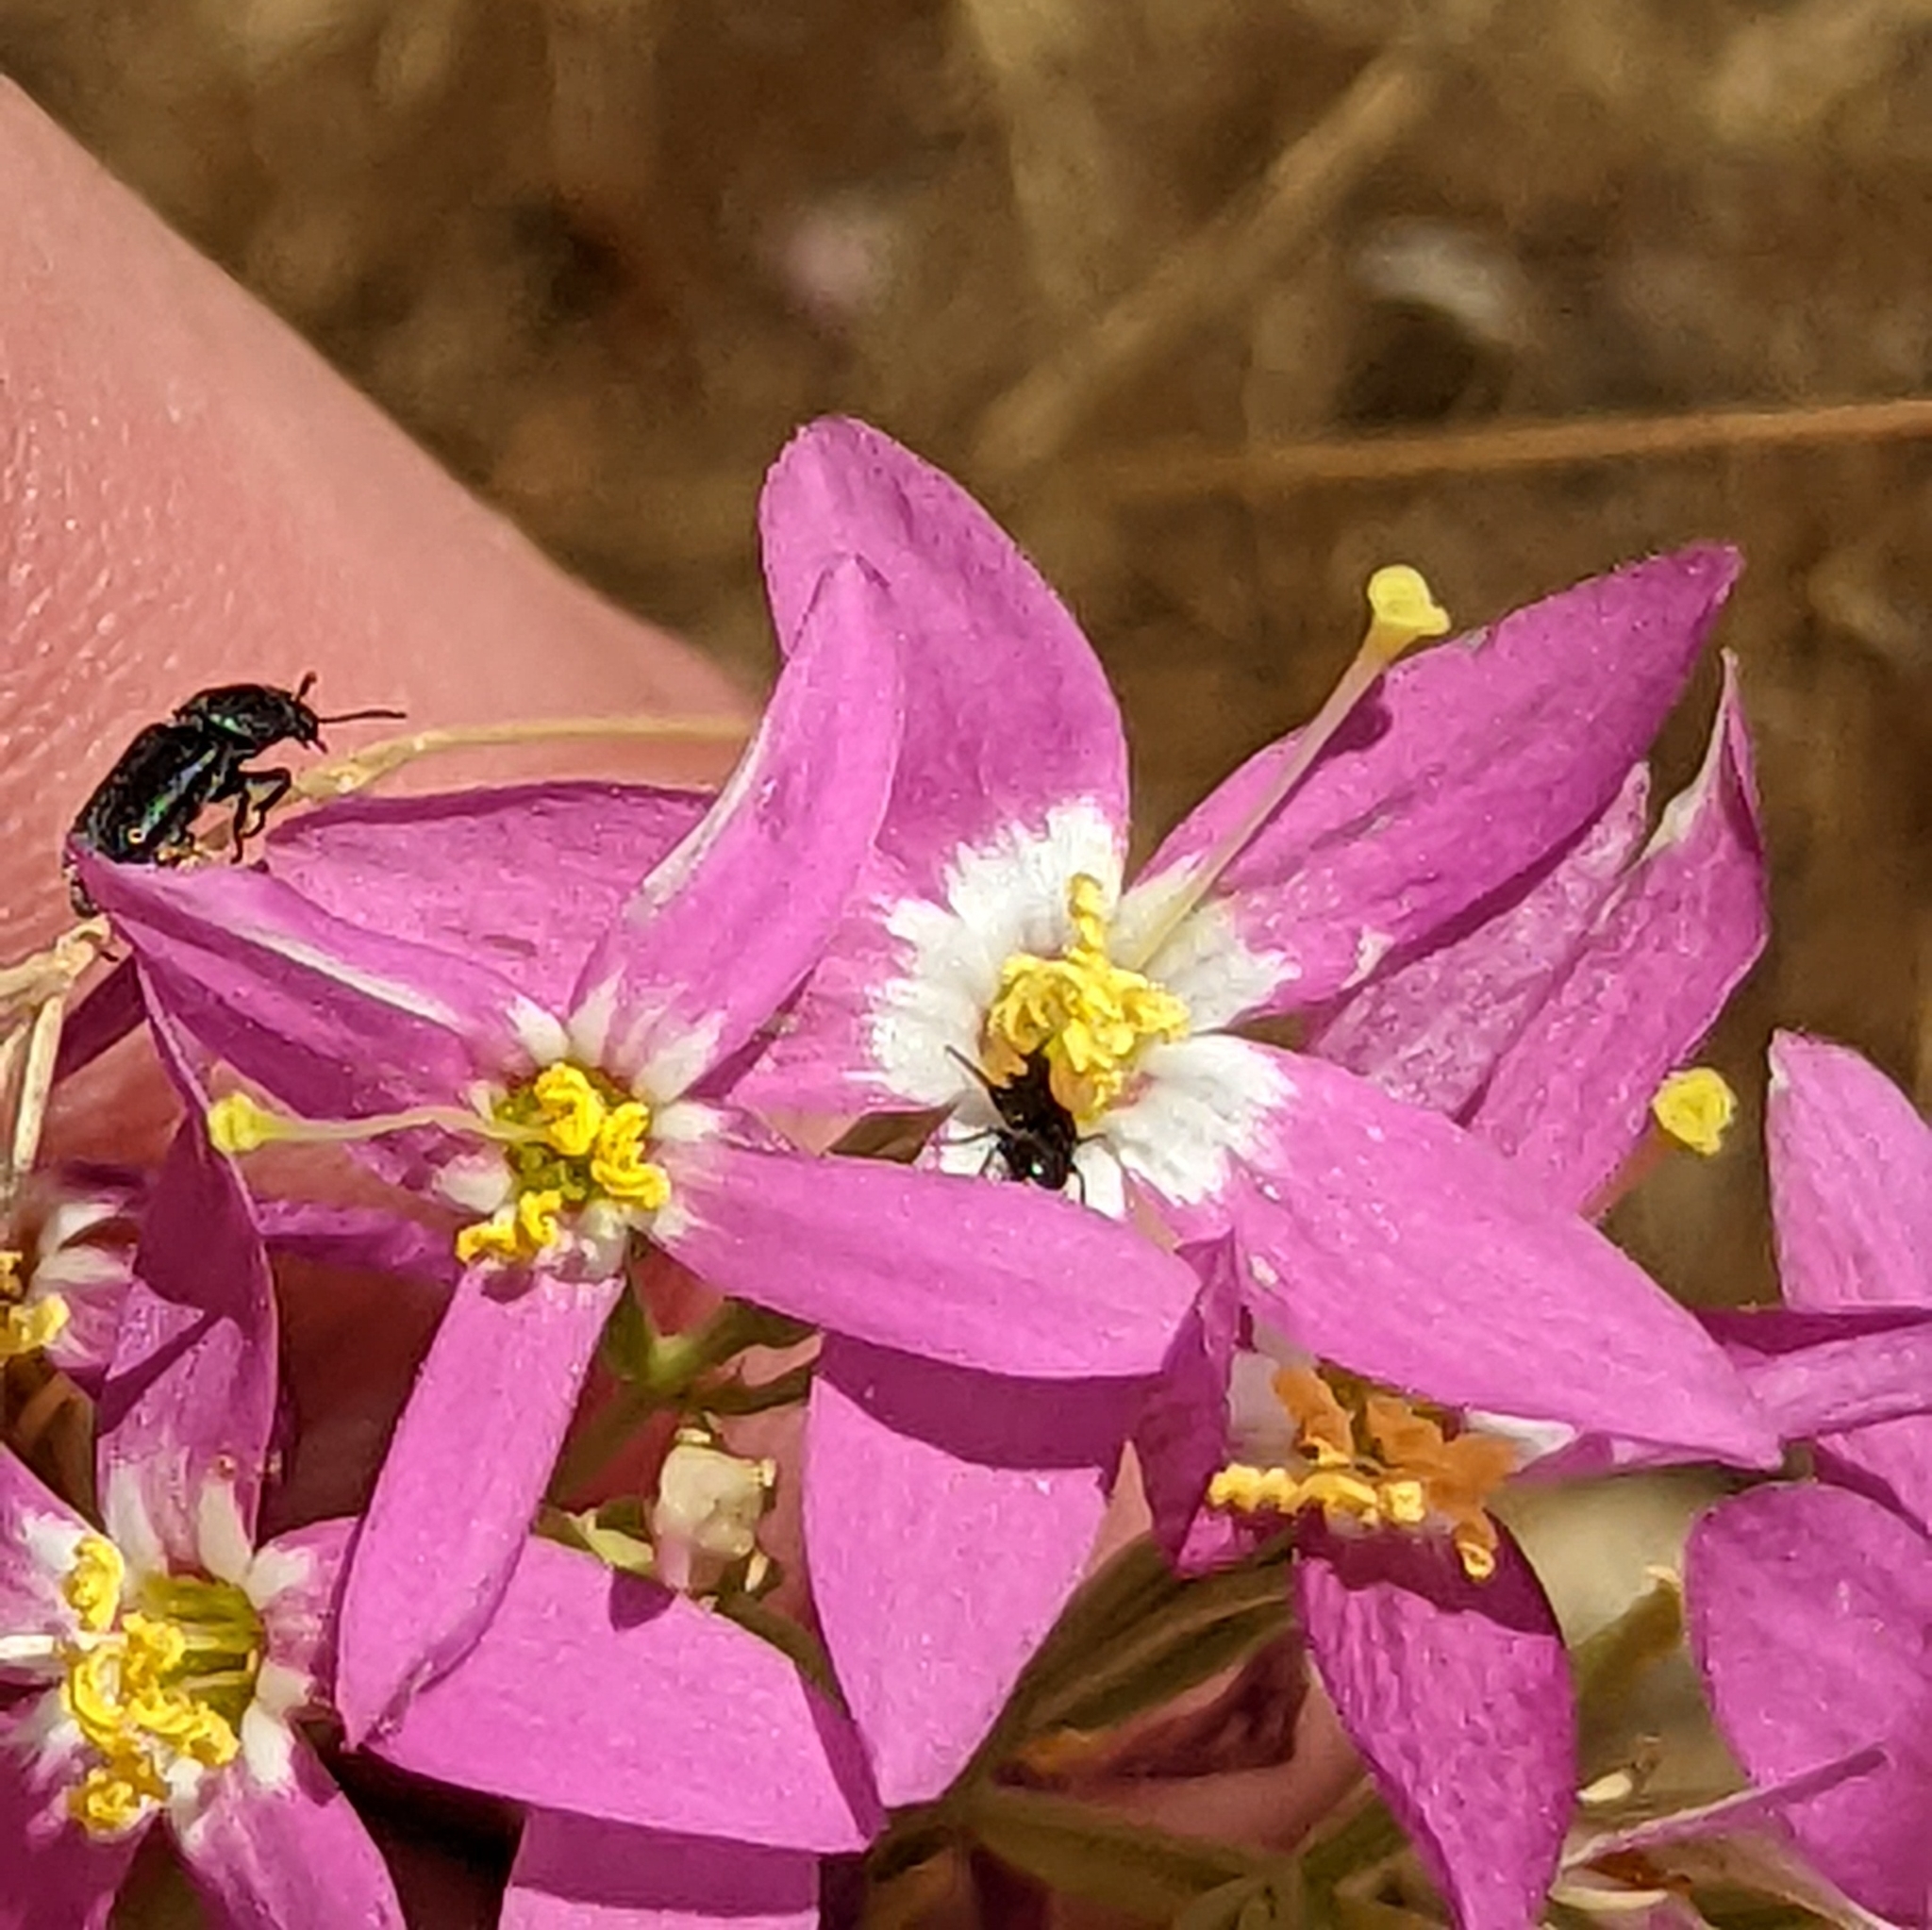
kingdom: Plantae
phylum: Tracheophyta
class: Magnoliopsida
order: Gentianales
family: Gentianaceae
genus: Zeltnera
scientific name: Zeltnera venusta
